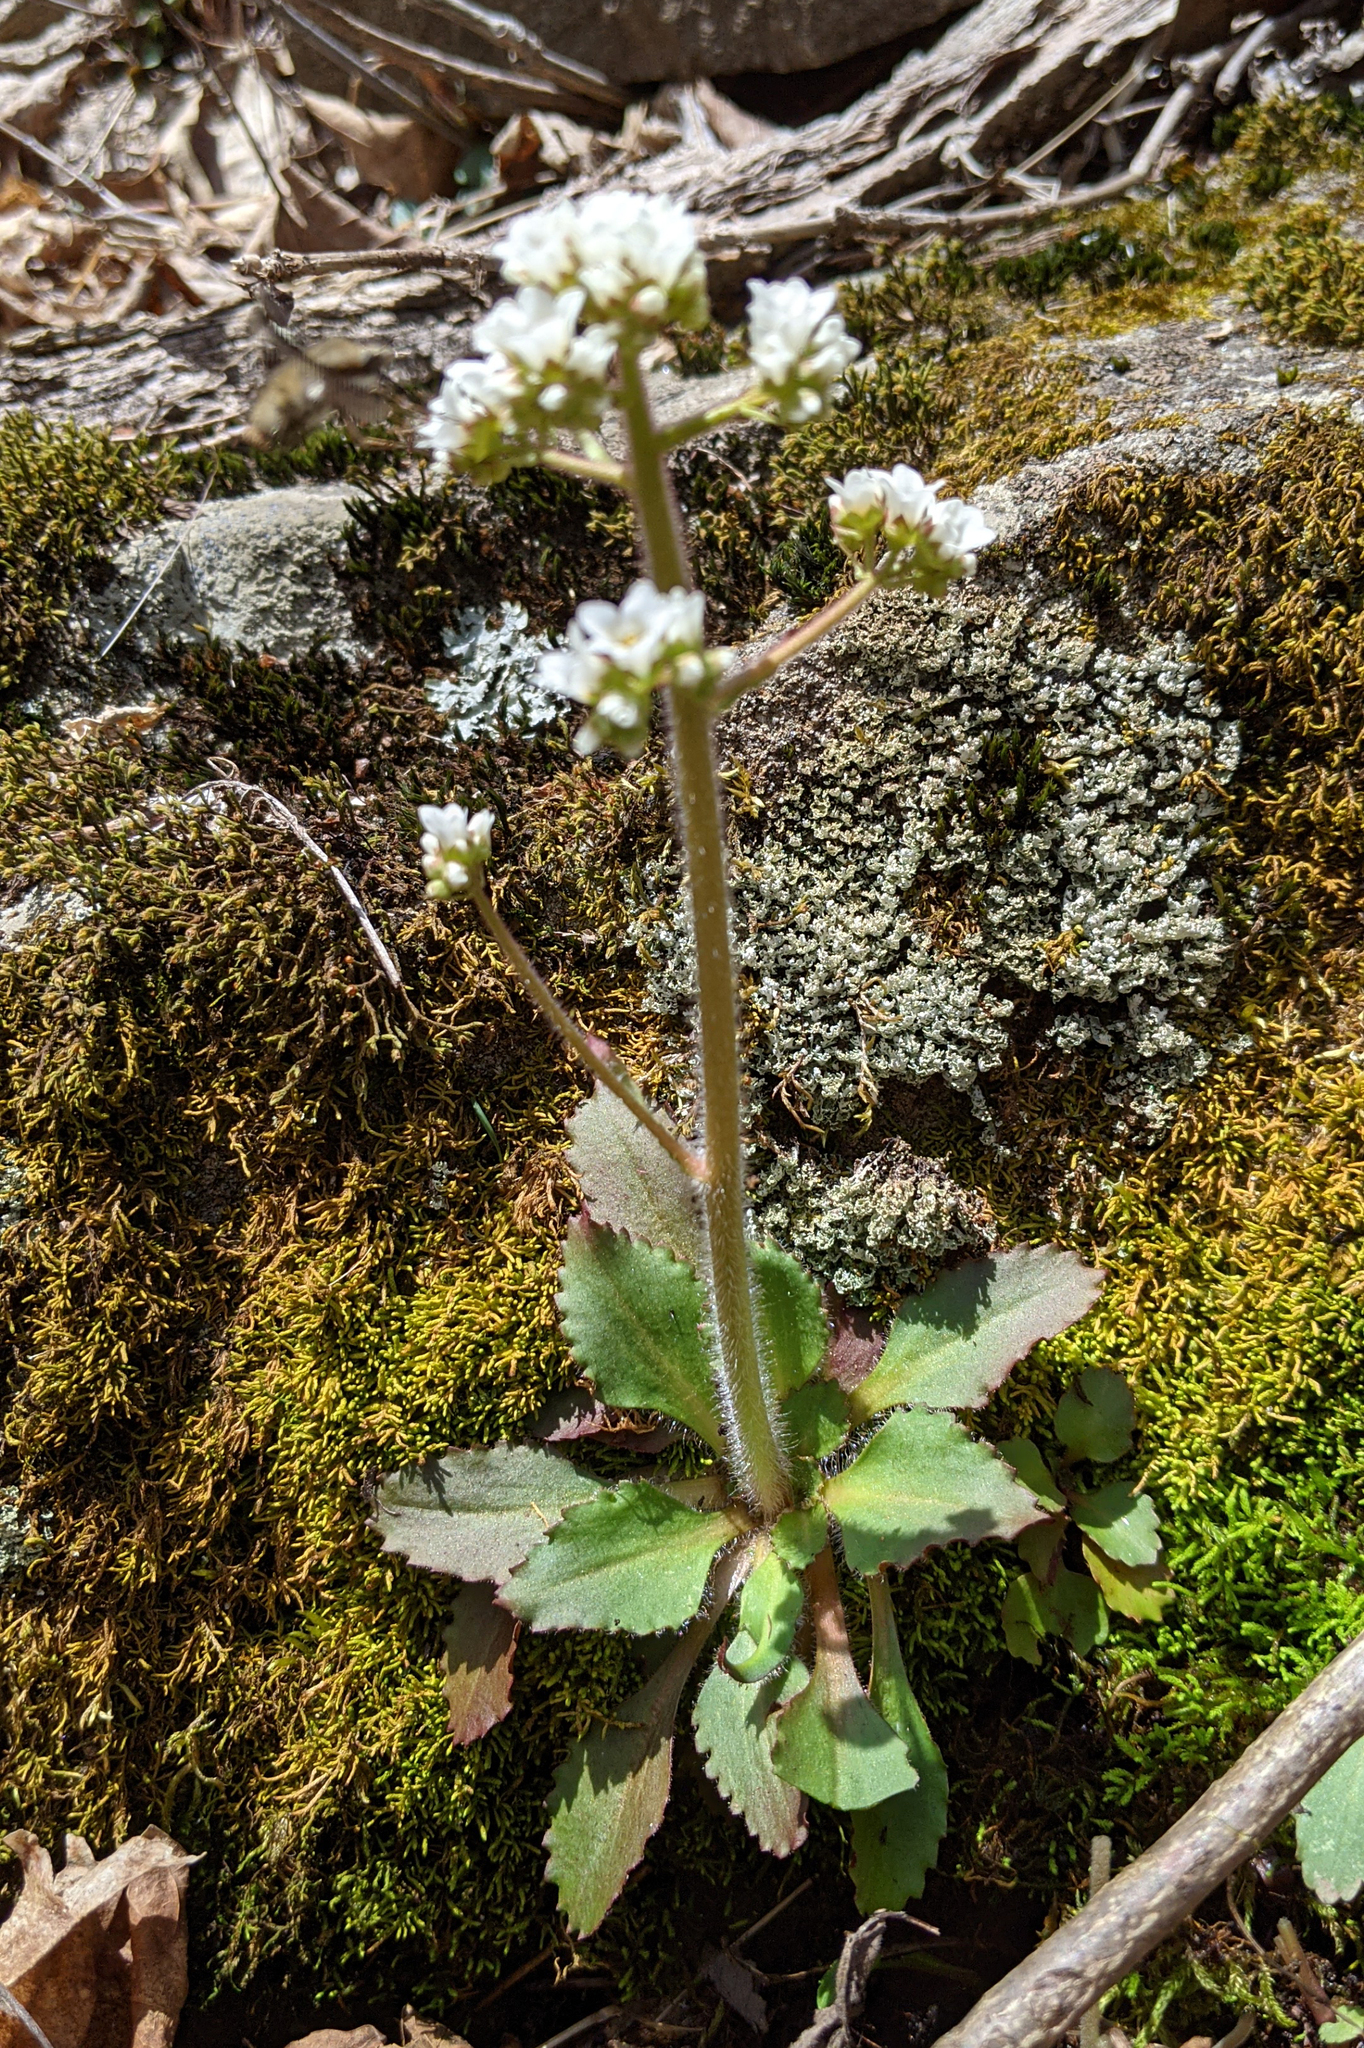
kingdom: Plantae
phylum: Tracheophyta
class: Magnoliopsida
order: Saxifragales
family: Saxifragaceae
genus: Micranthes
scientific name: Micranthes virginiensis
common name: Early saxifrage
